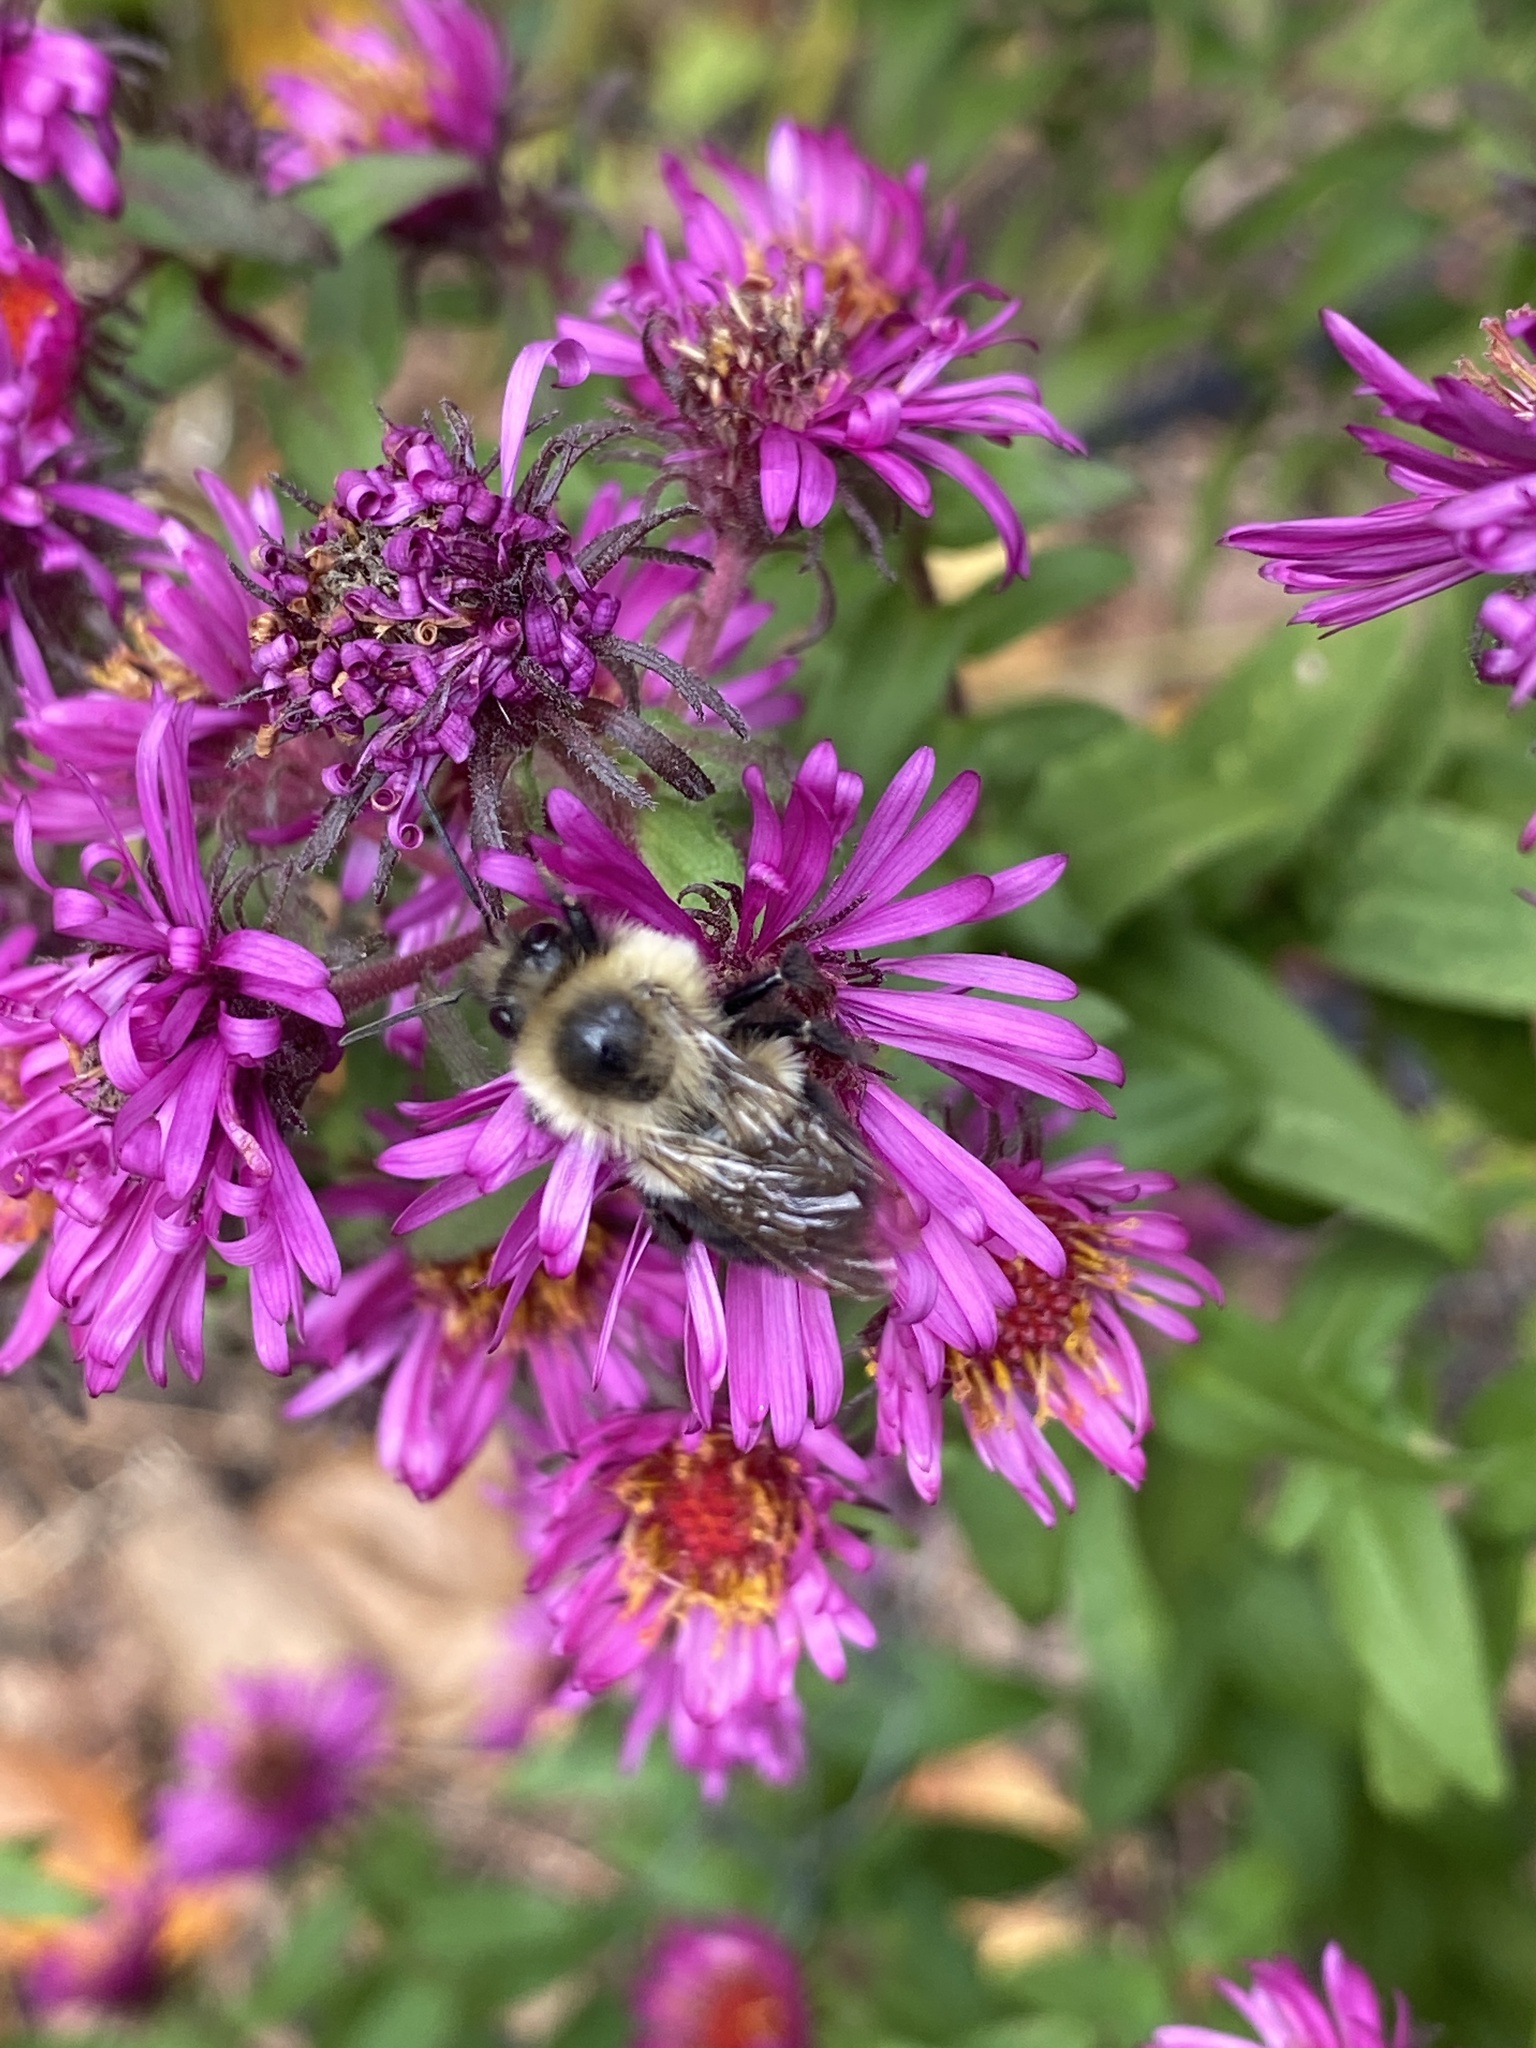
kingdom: Animalia
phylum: Arthropoda
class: Insecta
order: Hymenoptera
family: Apidae
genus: Bombus
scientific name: Bombus impatiens
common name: Common eastern bumble bee
